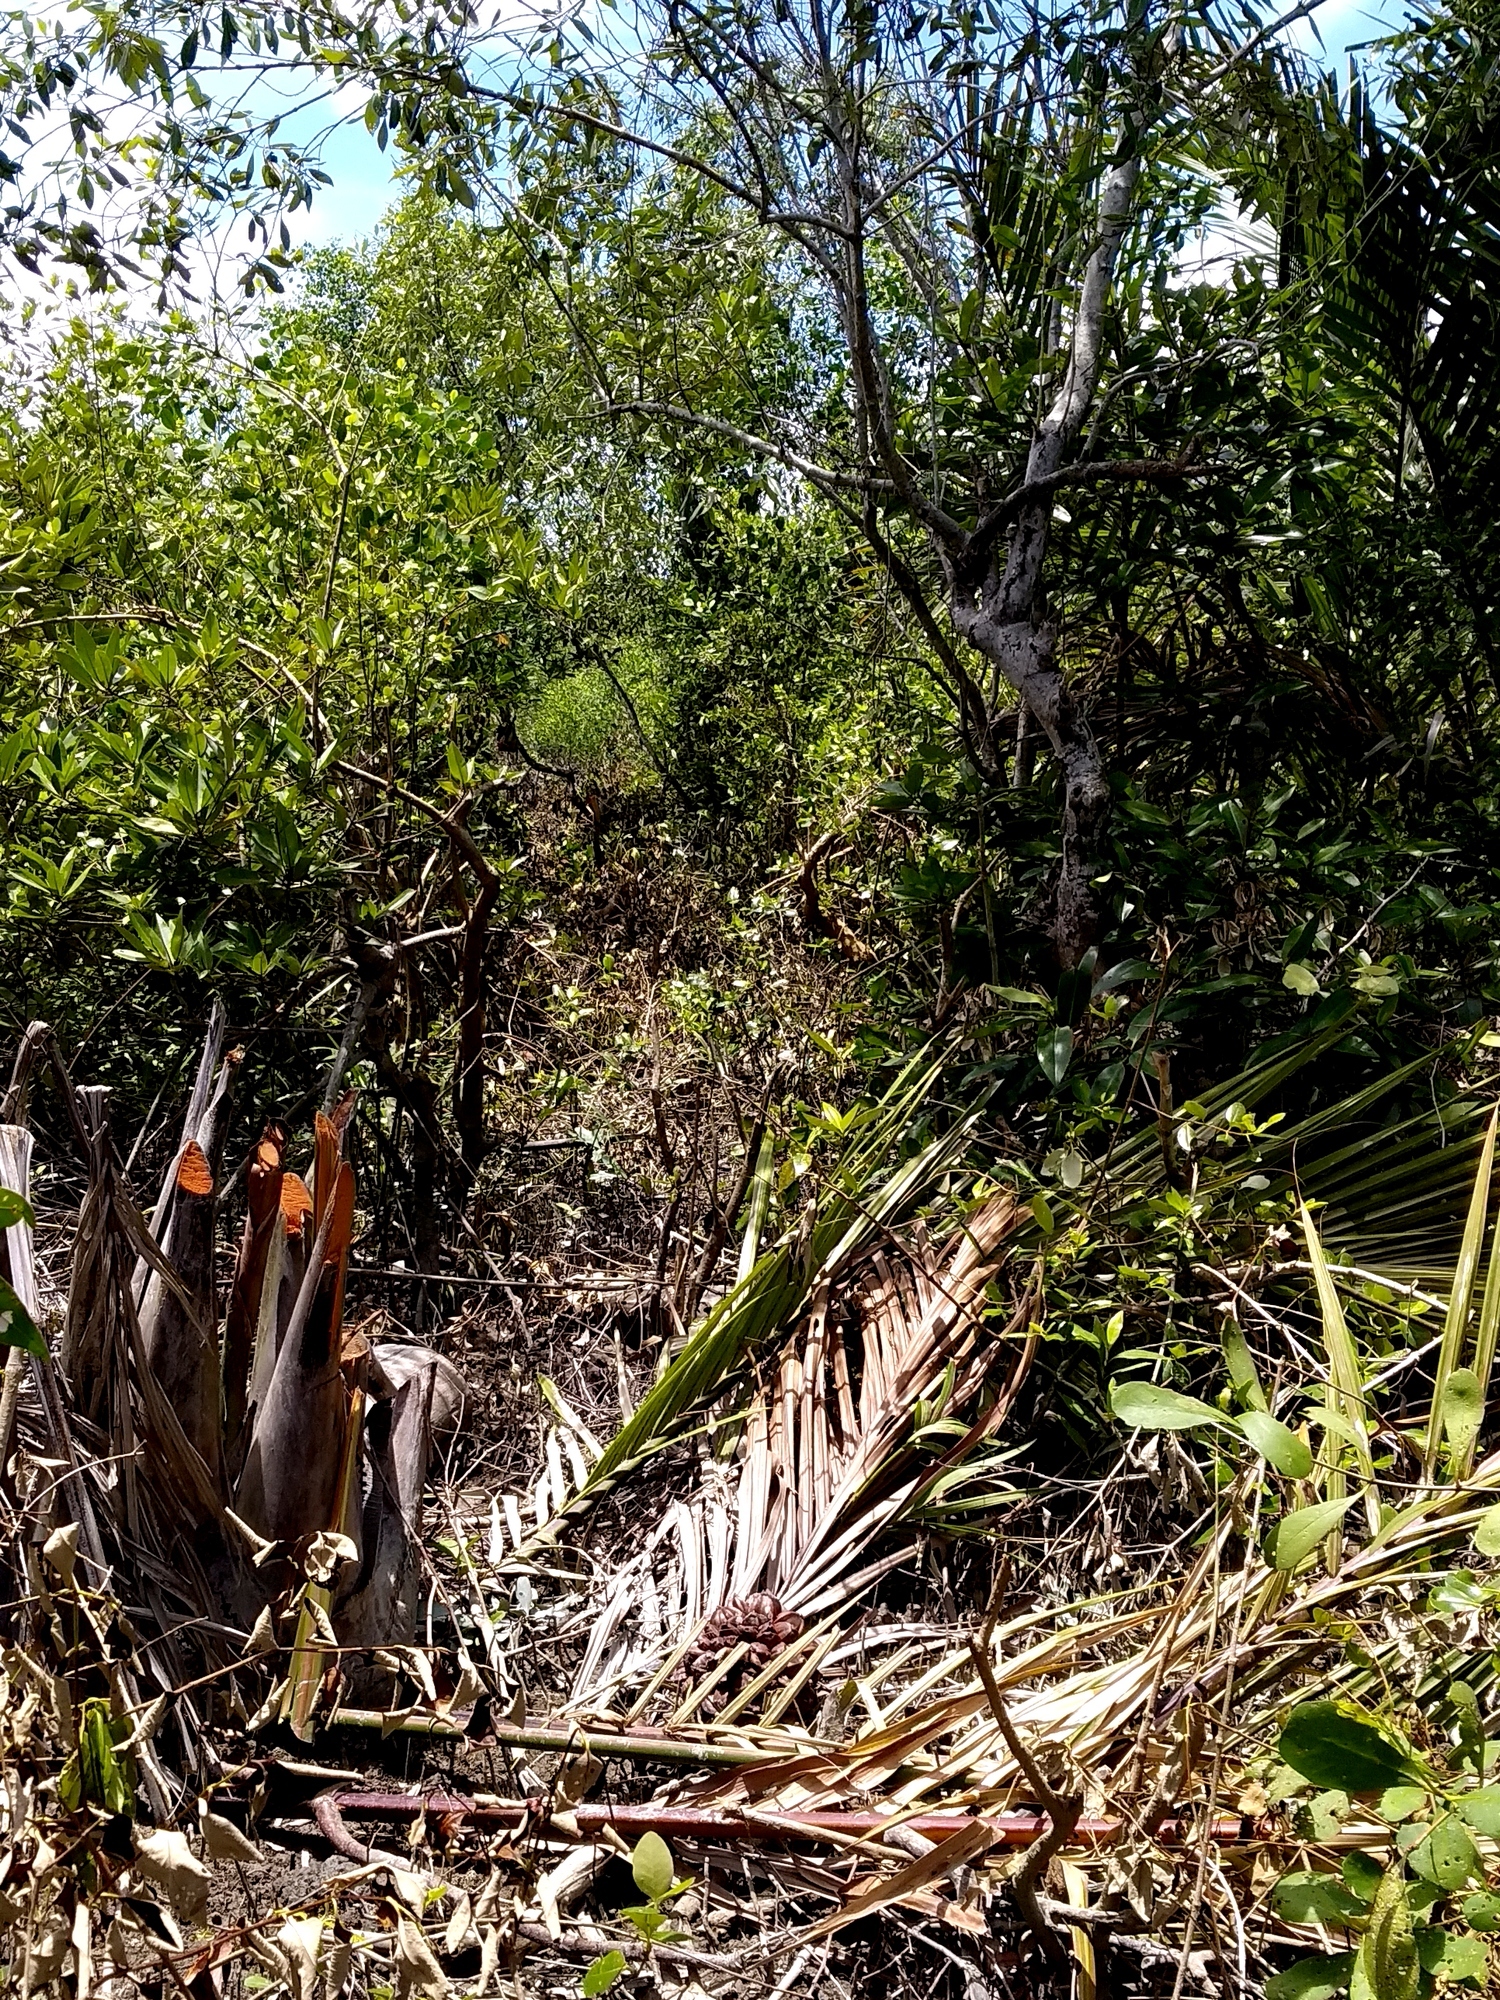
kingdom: Plantae
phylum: Tracheophyta
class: Liliopsida
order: Arecales
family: Arecaceae
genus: Nypa
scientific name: Nypa fruticans
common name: Mangrove palm
